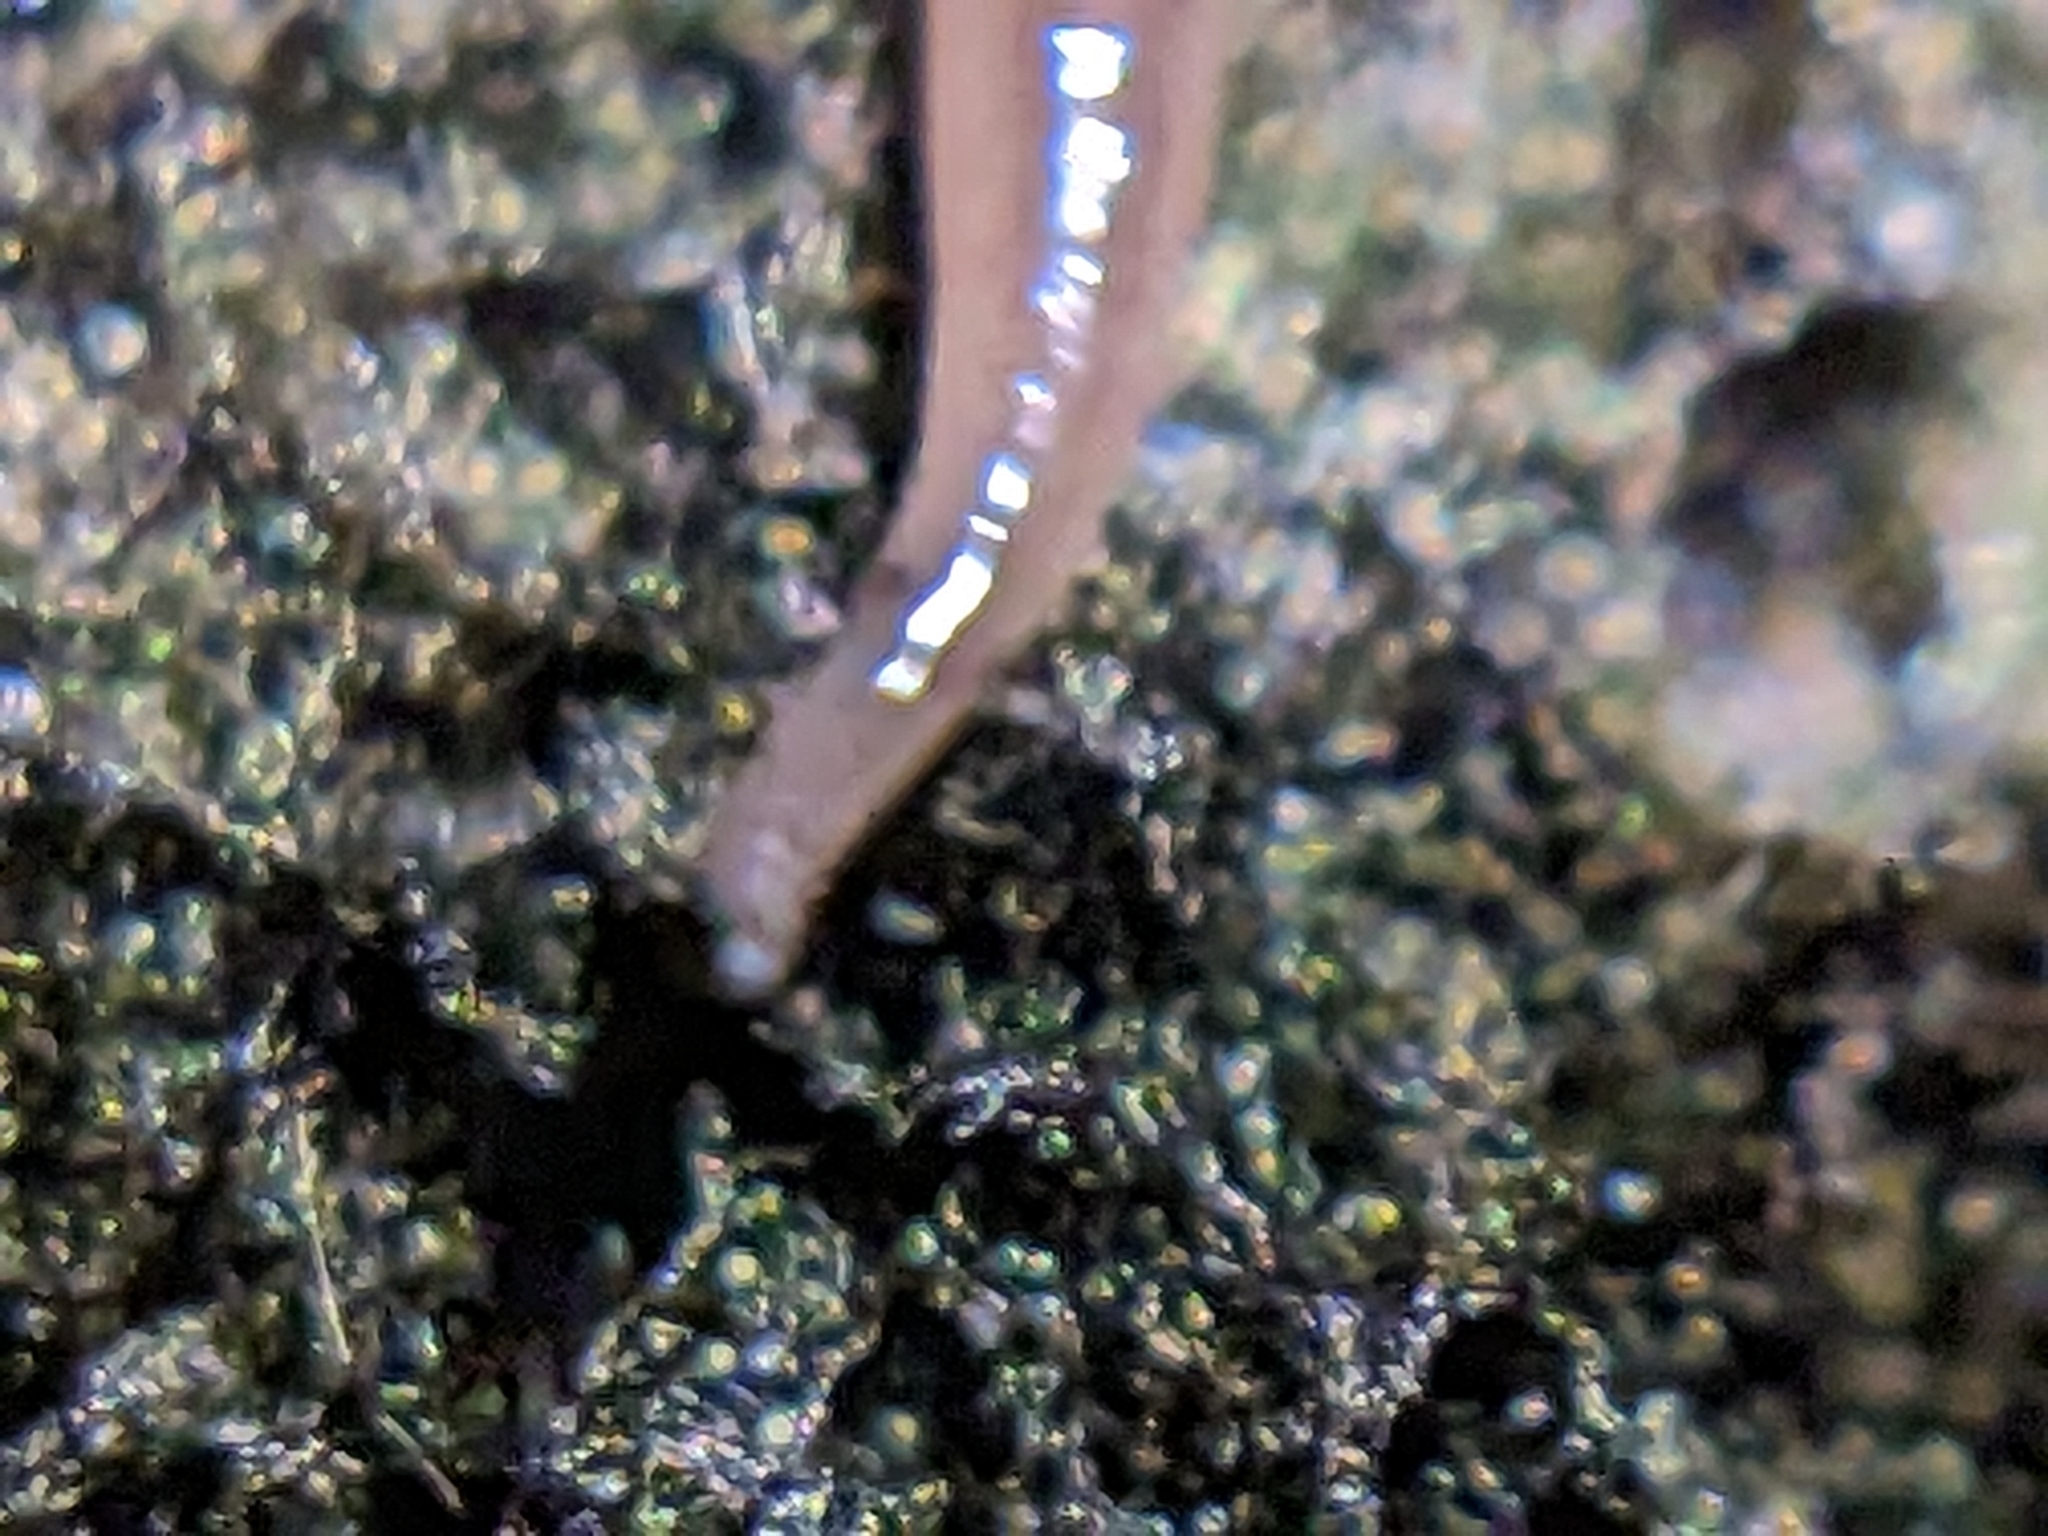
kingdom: Animalia
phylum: Platyhelminthes
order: Tricladida
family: Geoplanidae
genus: Rhynchodemus
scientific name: Rhynchodemus sylvaticus
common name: A flatworm
